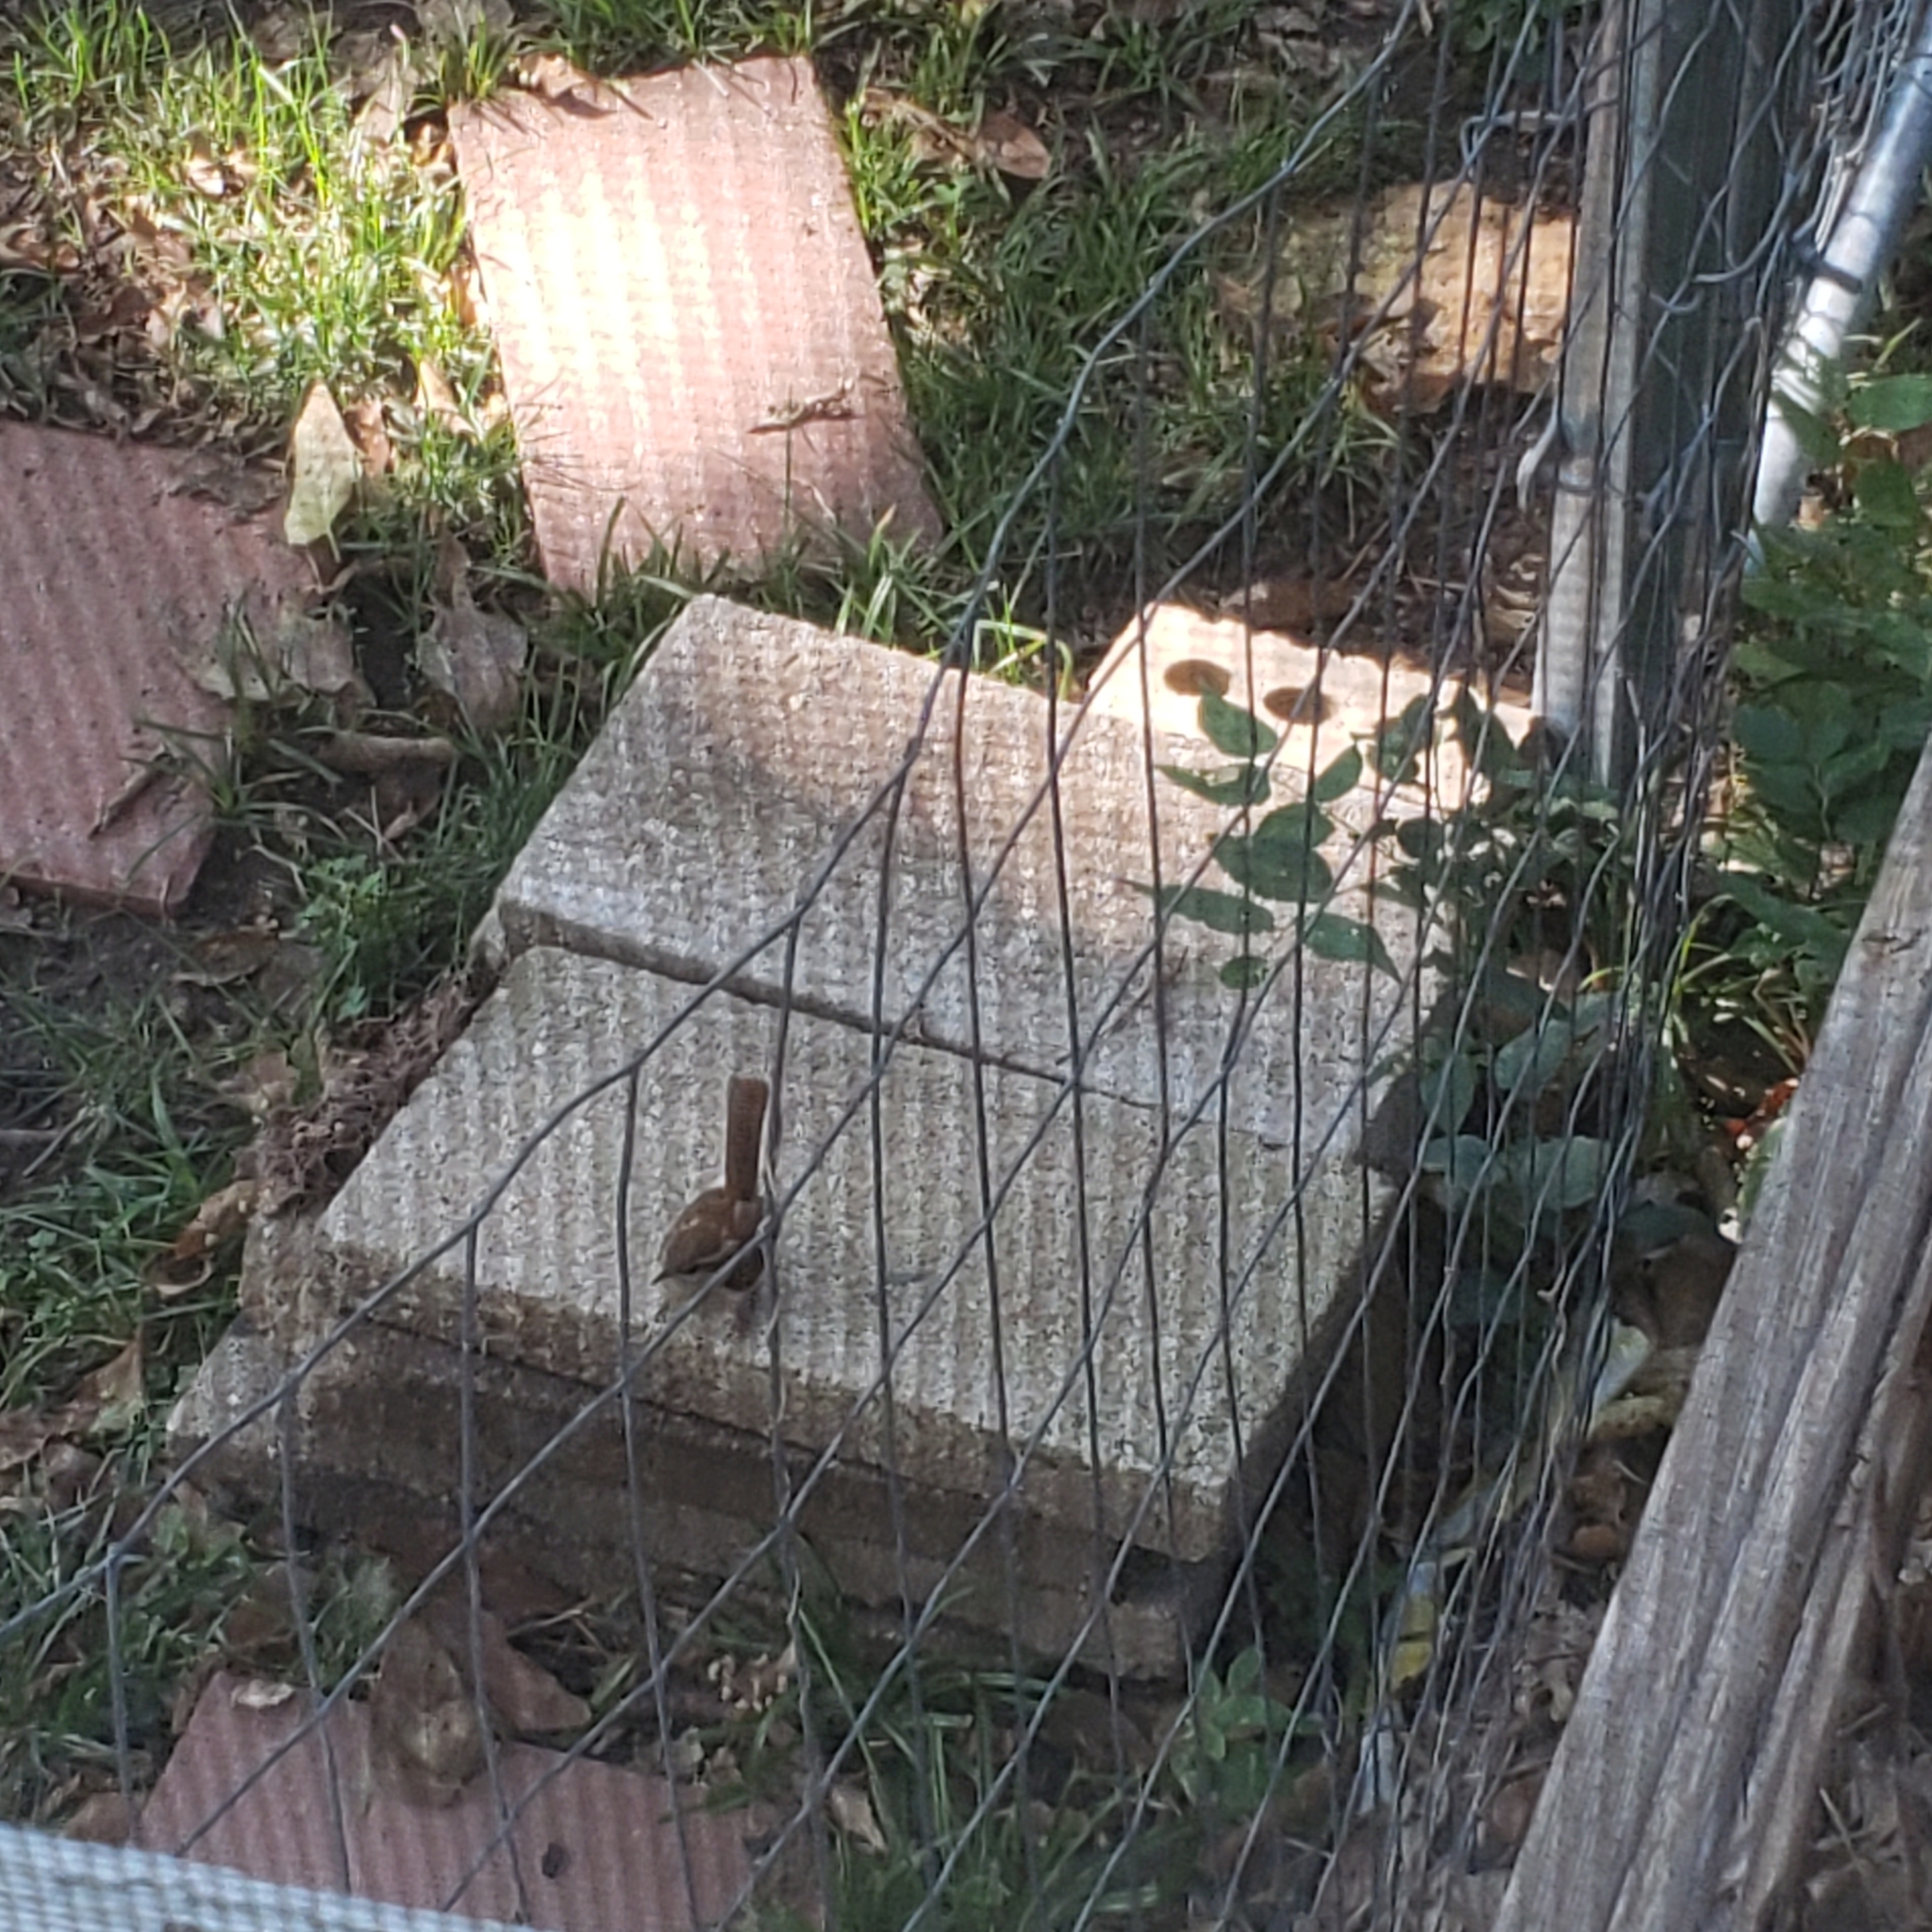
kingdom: Animalia
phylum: Chordata
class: Aves
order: Passeriformes
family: Troglodytidae
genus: Thryothorus
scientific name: Thryothorus ludovicianus
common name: Carolina wren
